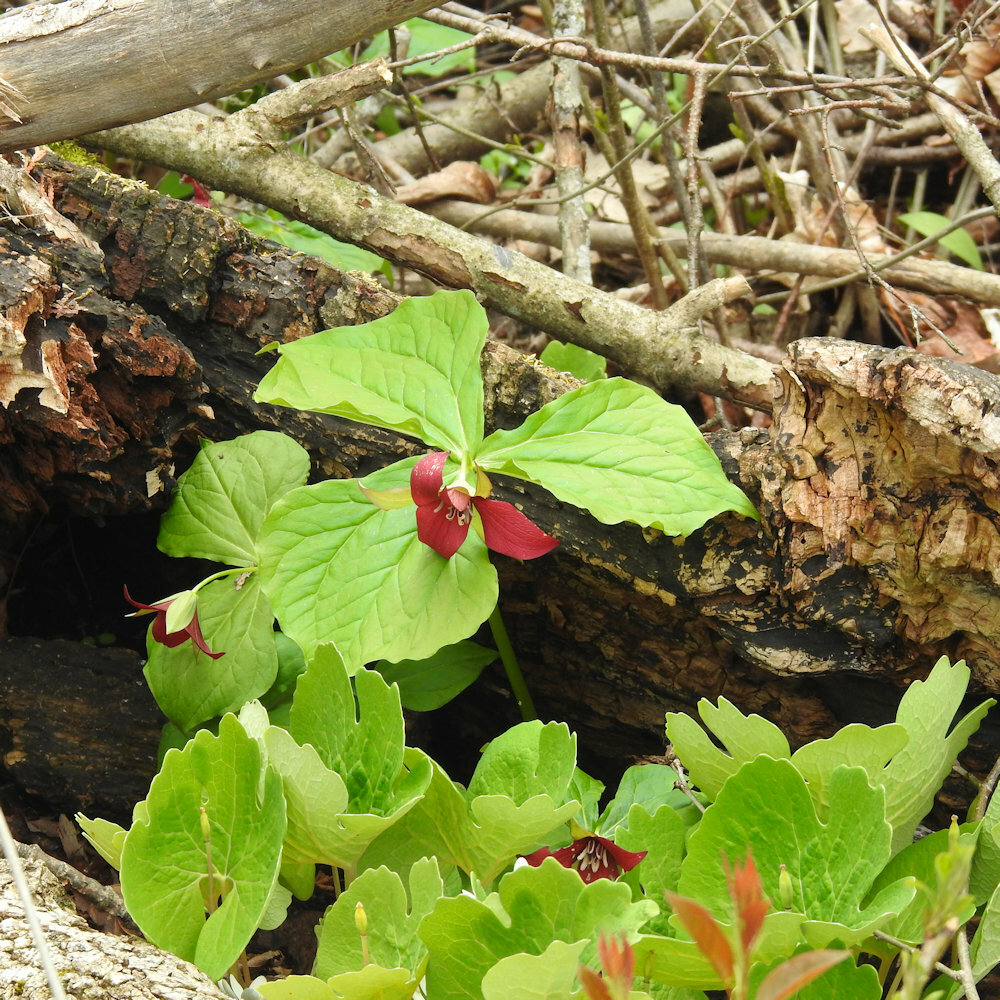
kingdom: Plantae
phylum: Tracheophyta
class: Liliopsida
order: Liliales
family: Melanthiaceae
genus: Trillium
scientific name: Trillium erectum
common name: Purple trillium
